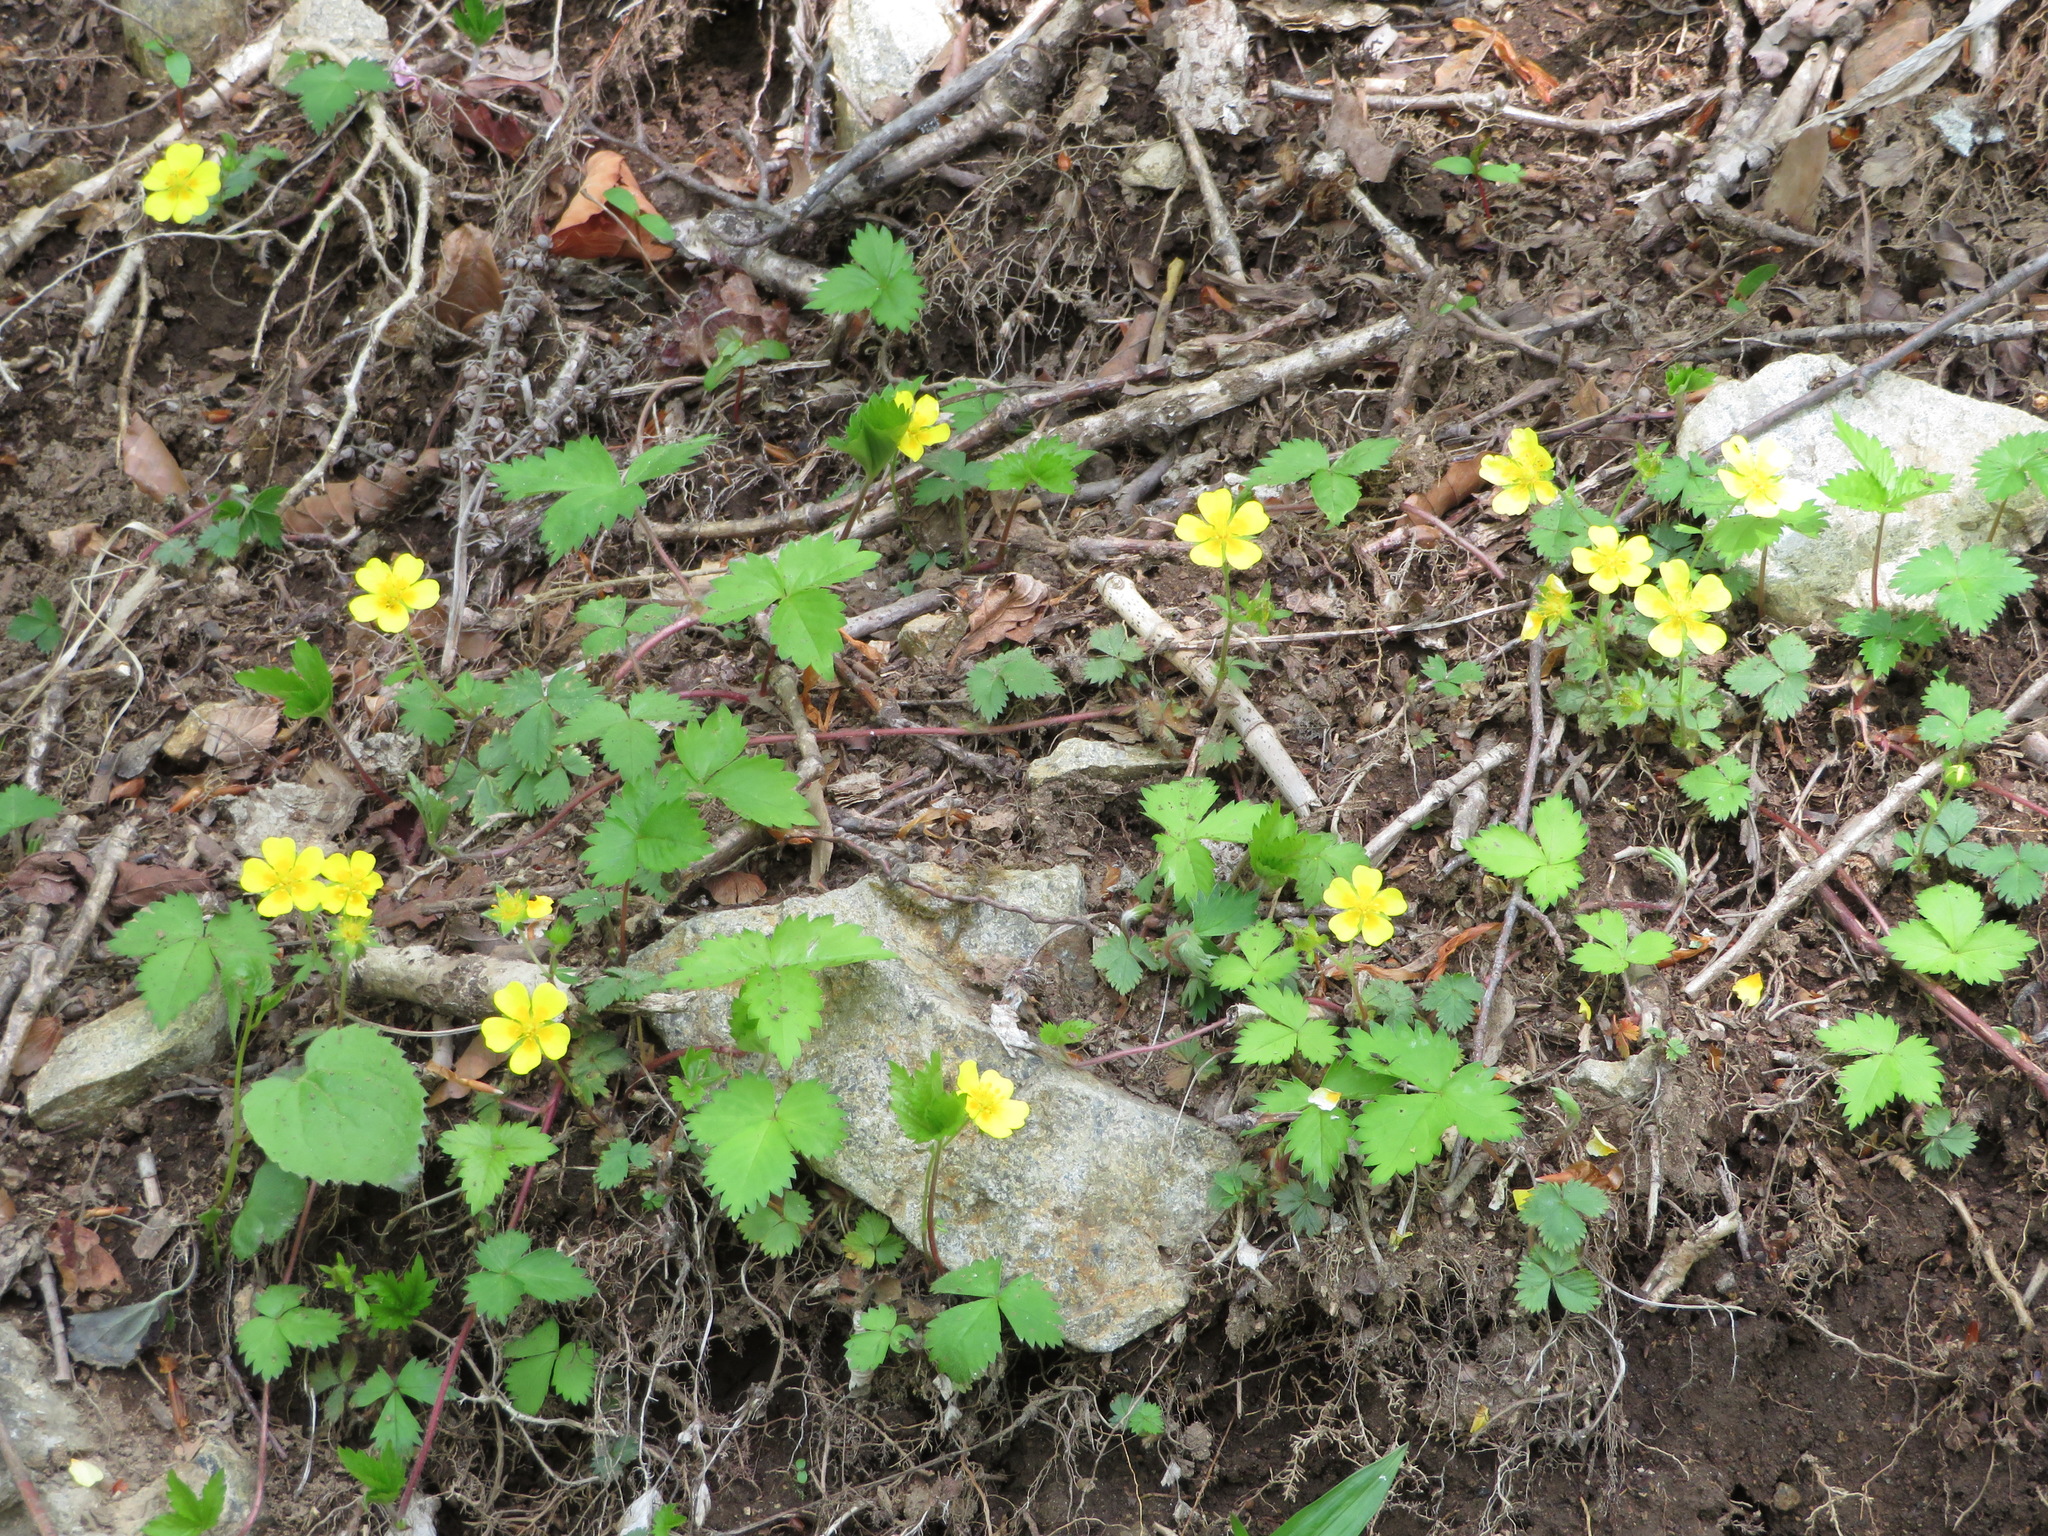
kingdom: Plantae
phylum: Tracheophyta
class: Magnoliopsida
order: Rosales
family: Rosaceae
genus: Potentilla
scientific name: Potentilla rosulifera
